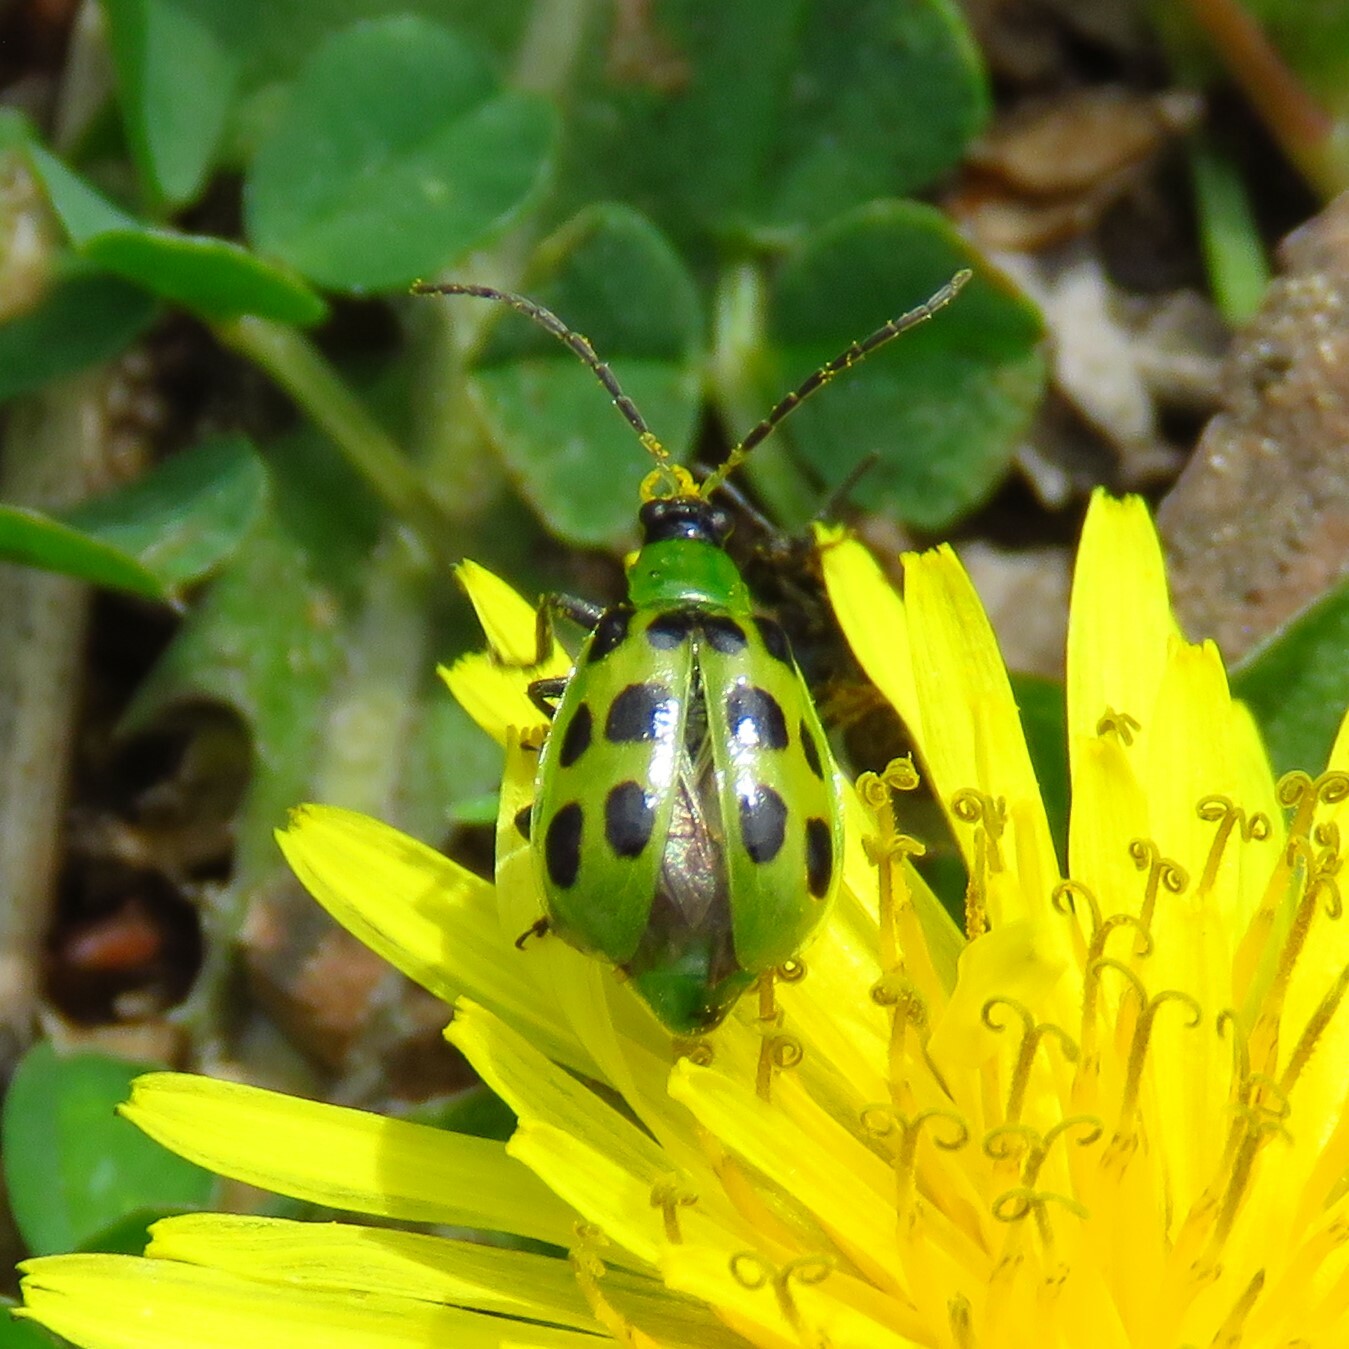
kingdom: Animalia
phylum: Arthropoda
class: Insecta
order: Coleoptera
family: Chrysomelidae
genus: Diabrotica
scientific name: Diabrotica undecimpunctata
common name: Spotted cucumber beetle
